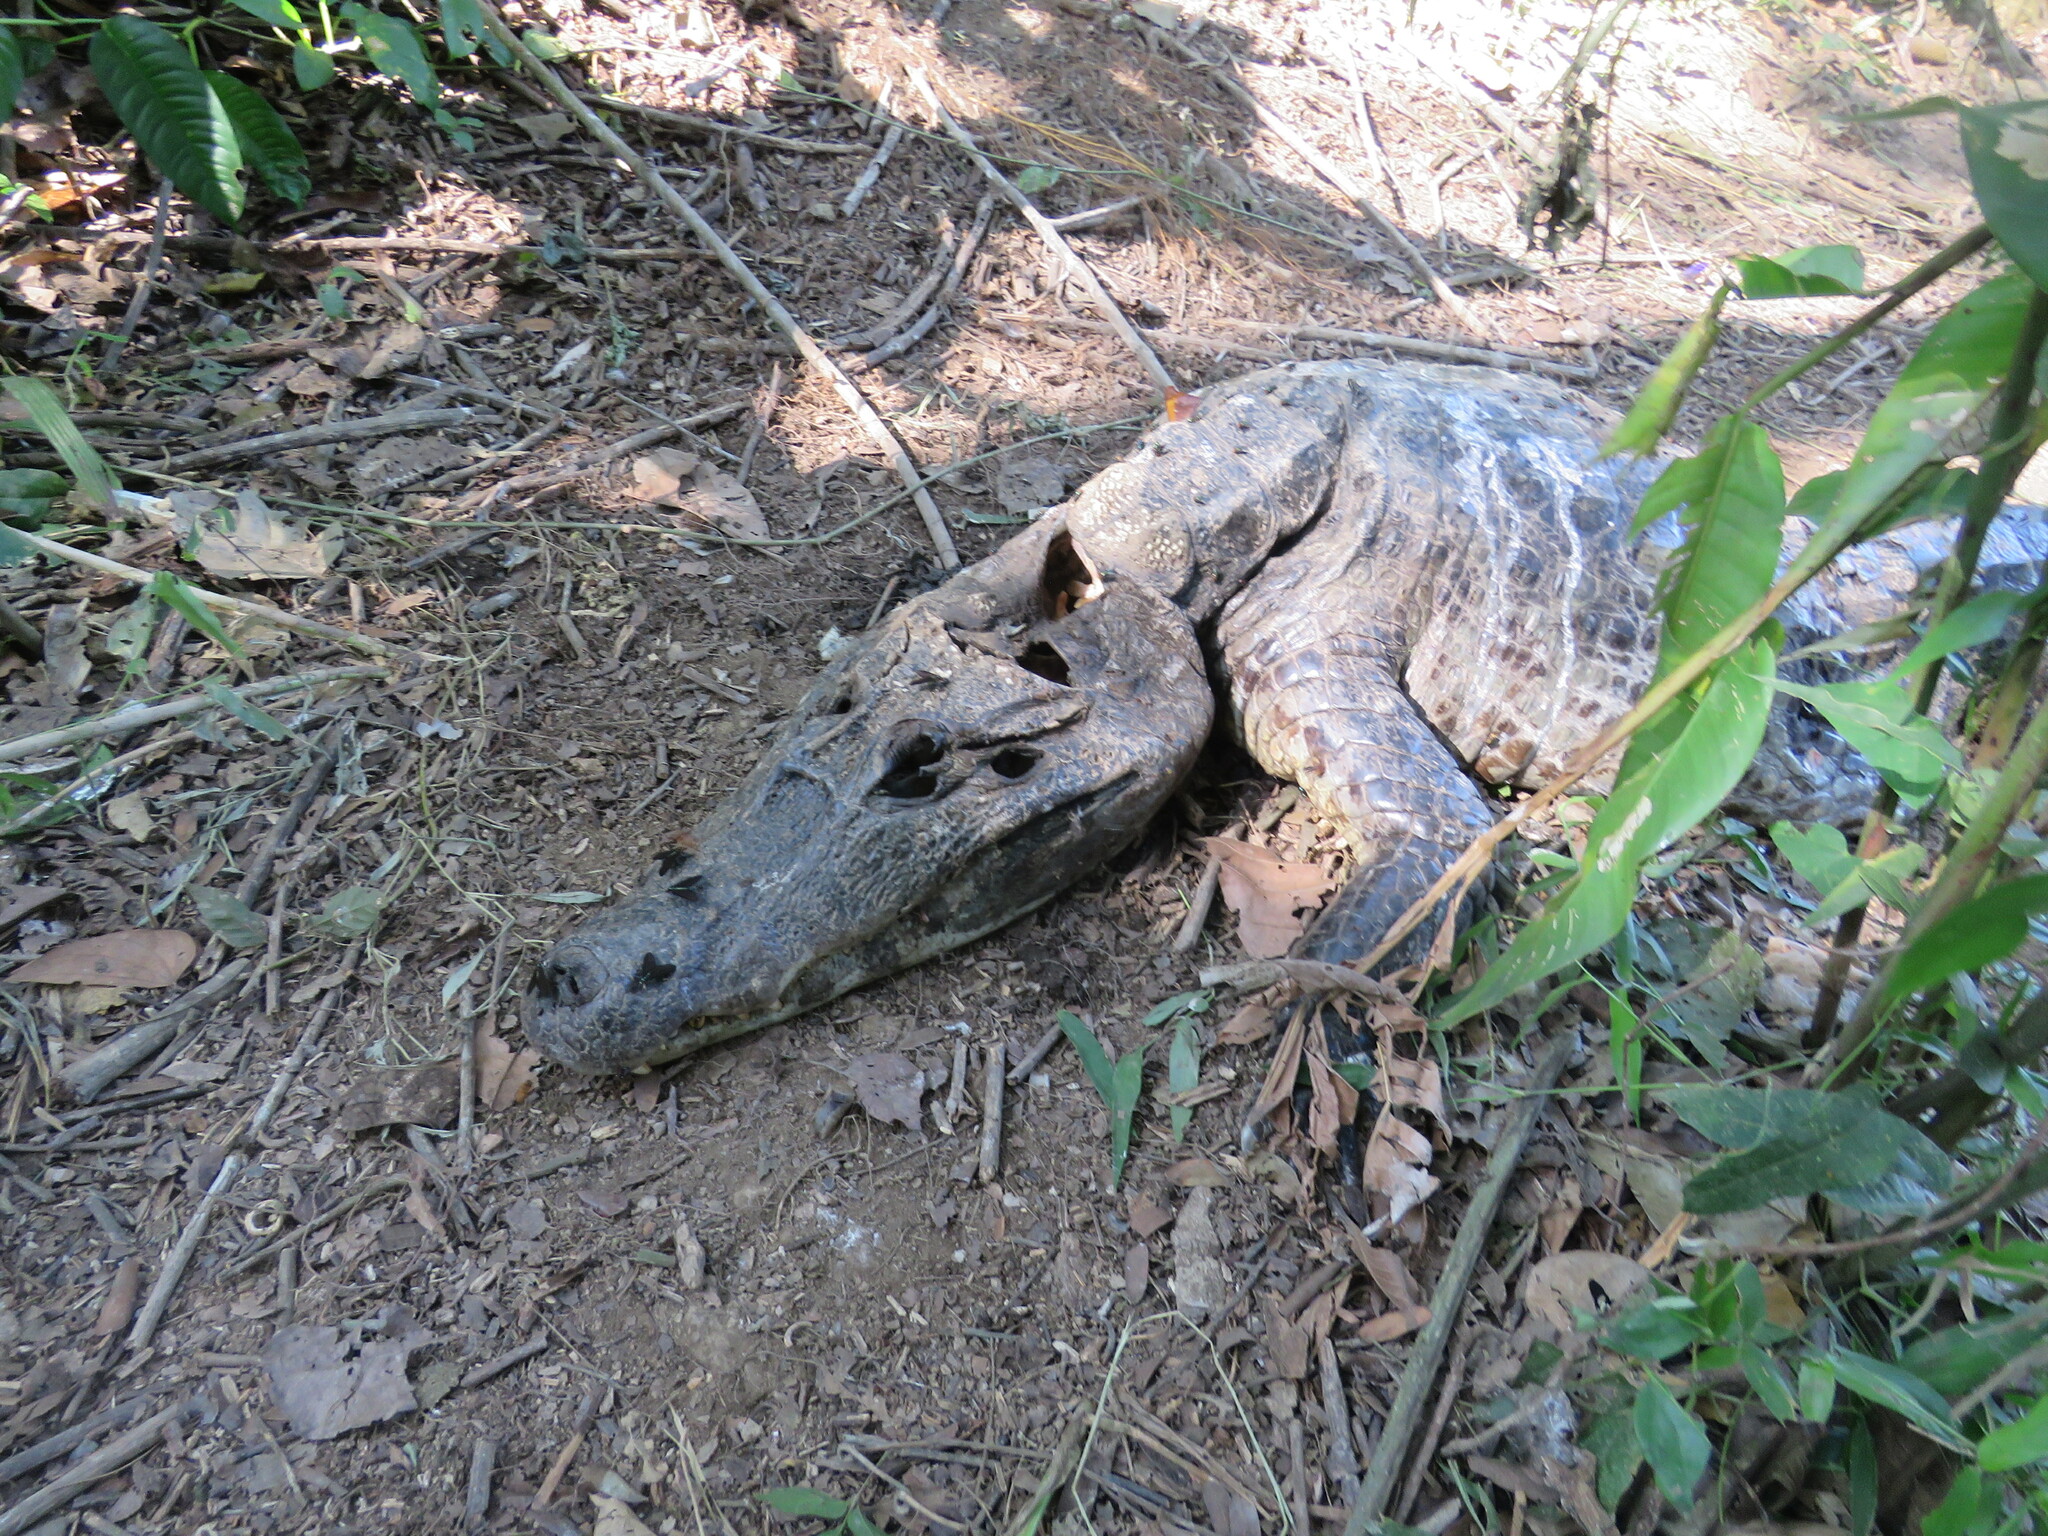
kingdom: Animalia
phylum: Chordata
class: Crocodylia
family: Alligatoridae
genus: Caiman
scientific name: Caiman yacare
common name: Yacare caiman
